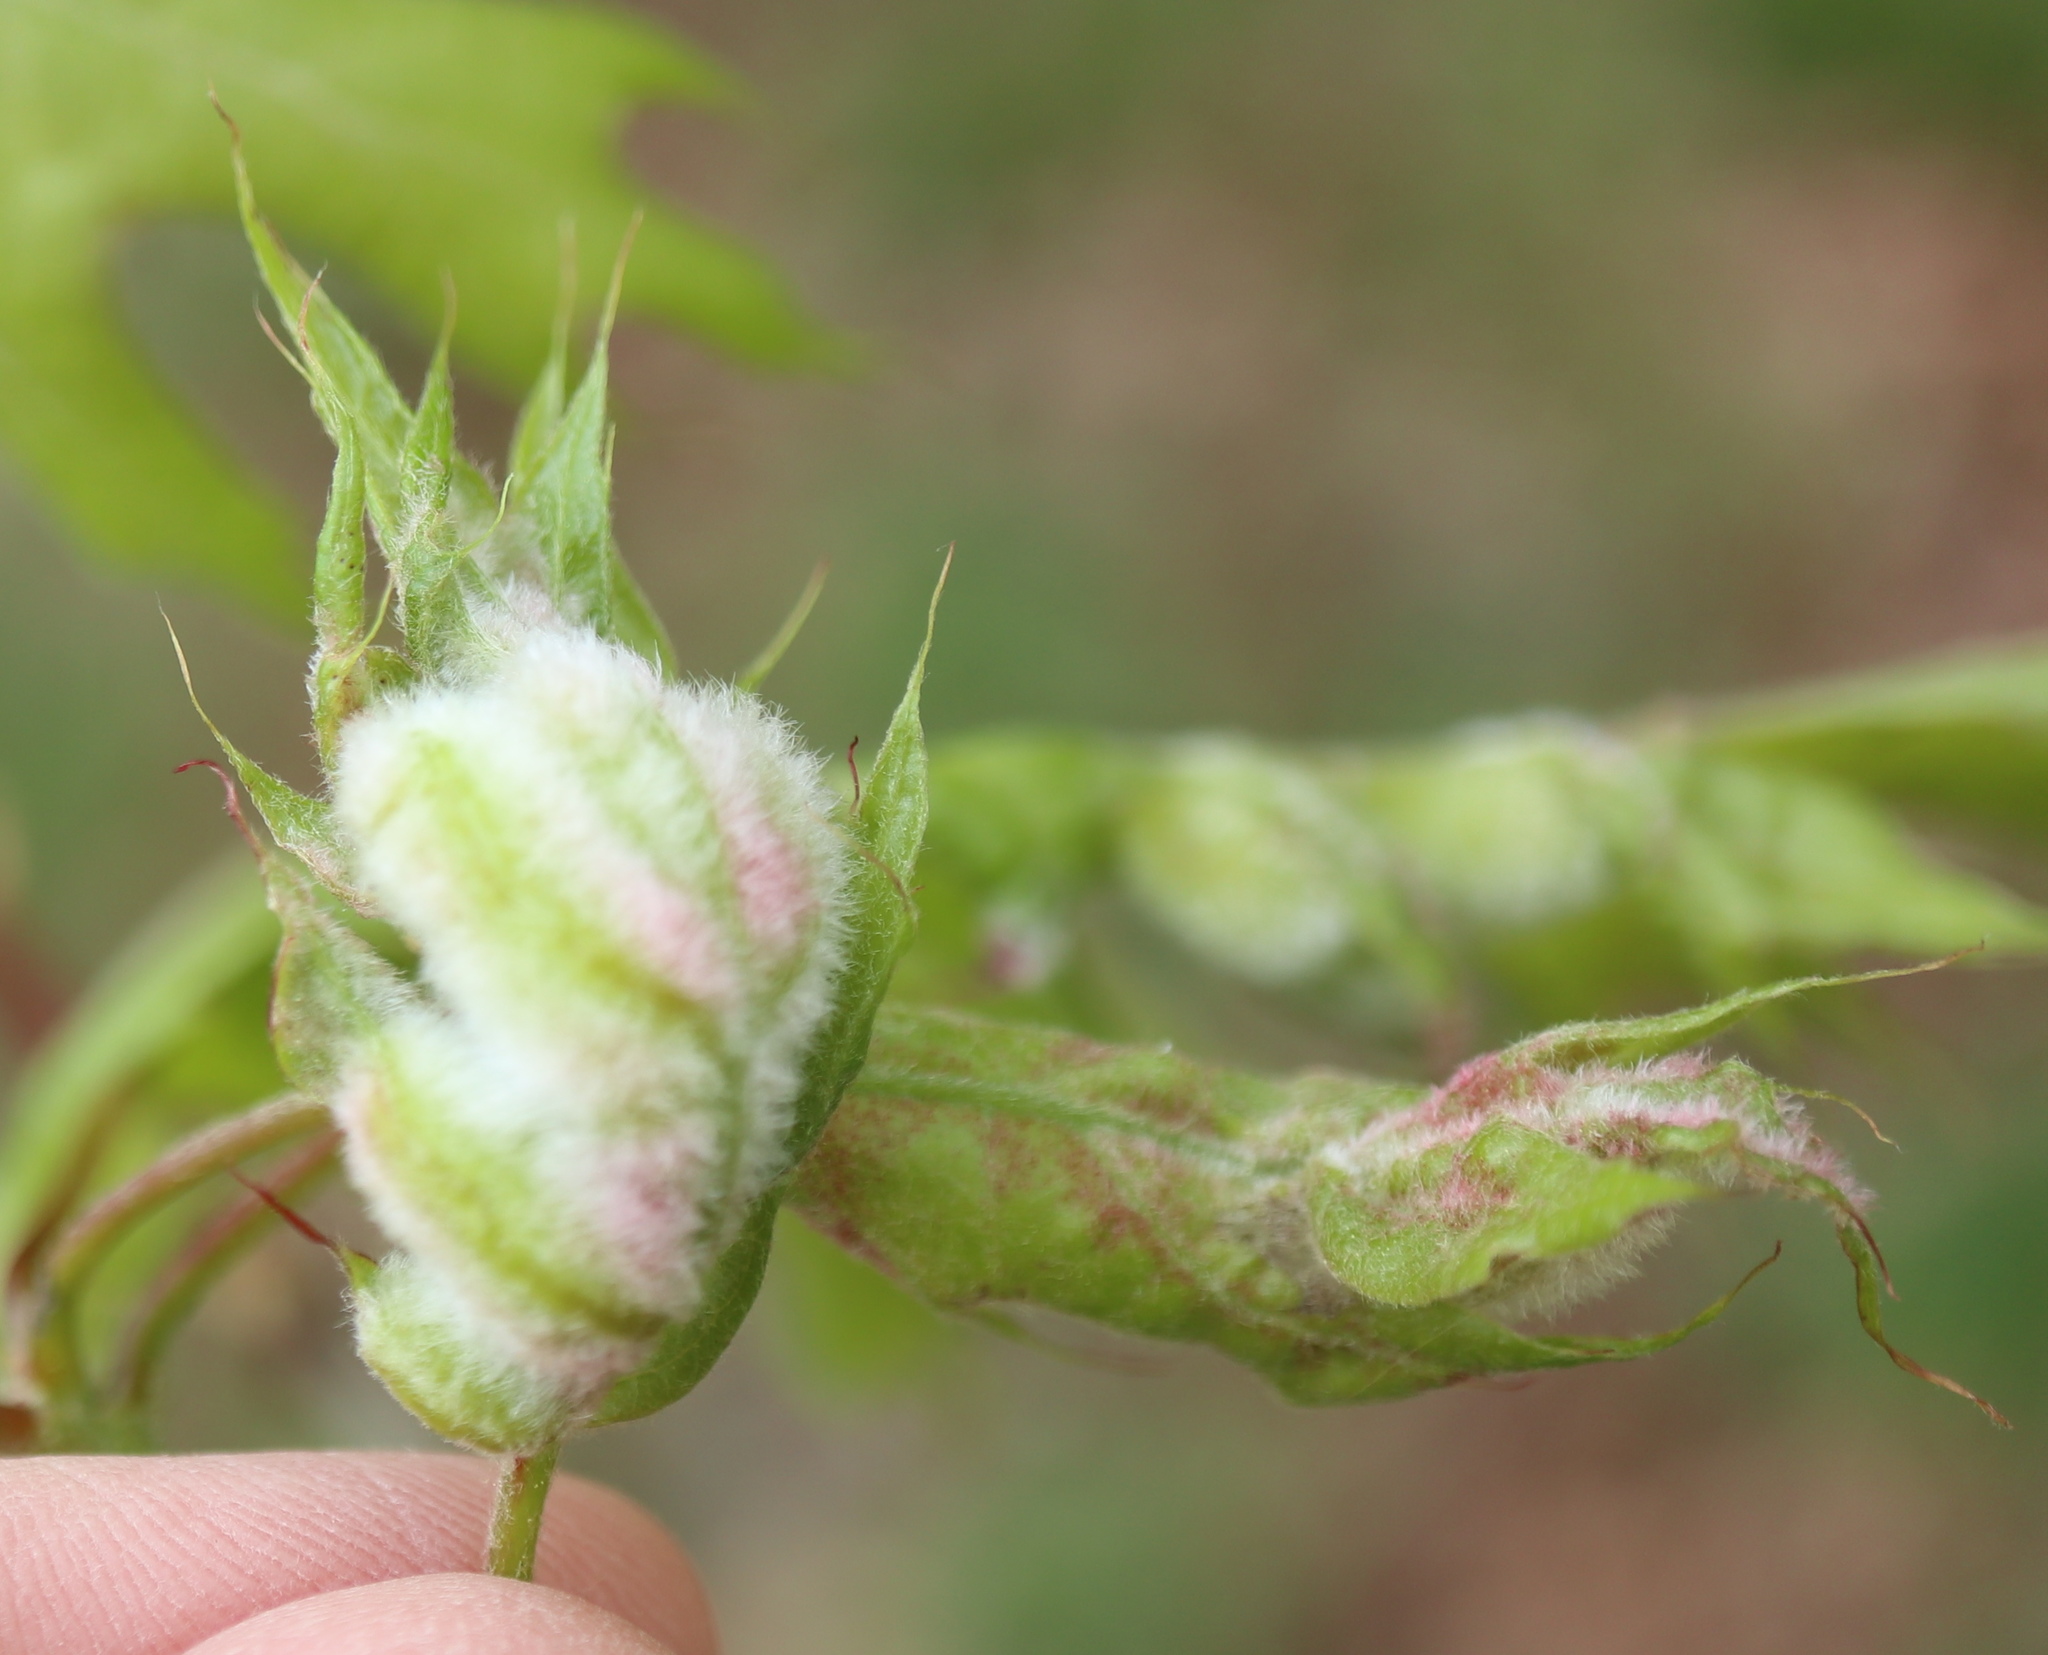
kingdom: Animalia
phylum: Arthropoda
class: Insecta
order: Diptera
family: Cecidomyiidae
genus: Macrodiplosis
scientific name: Macrodiplosis niveipila
